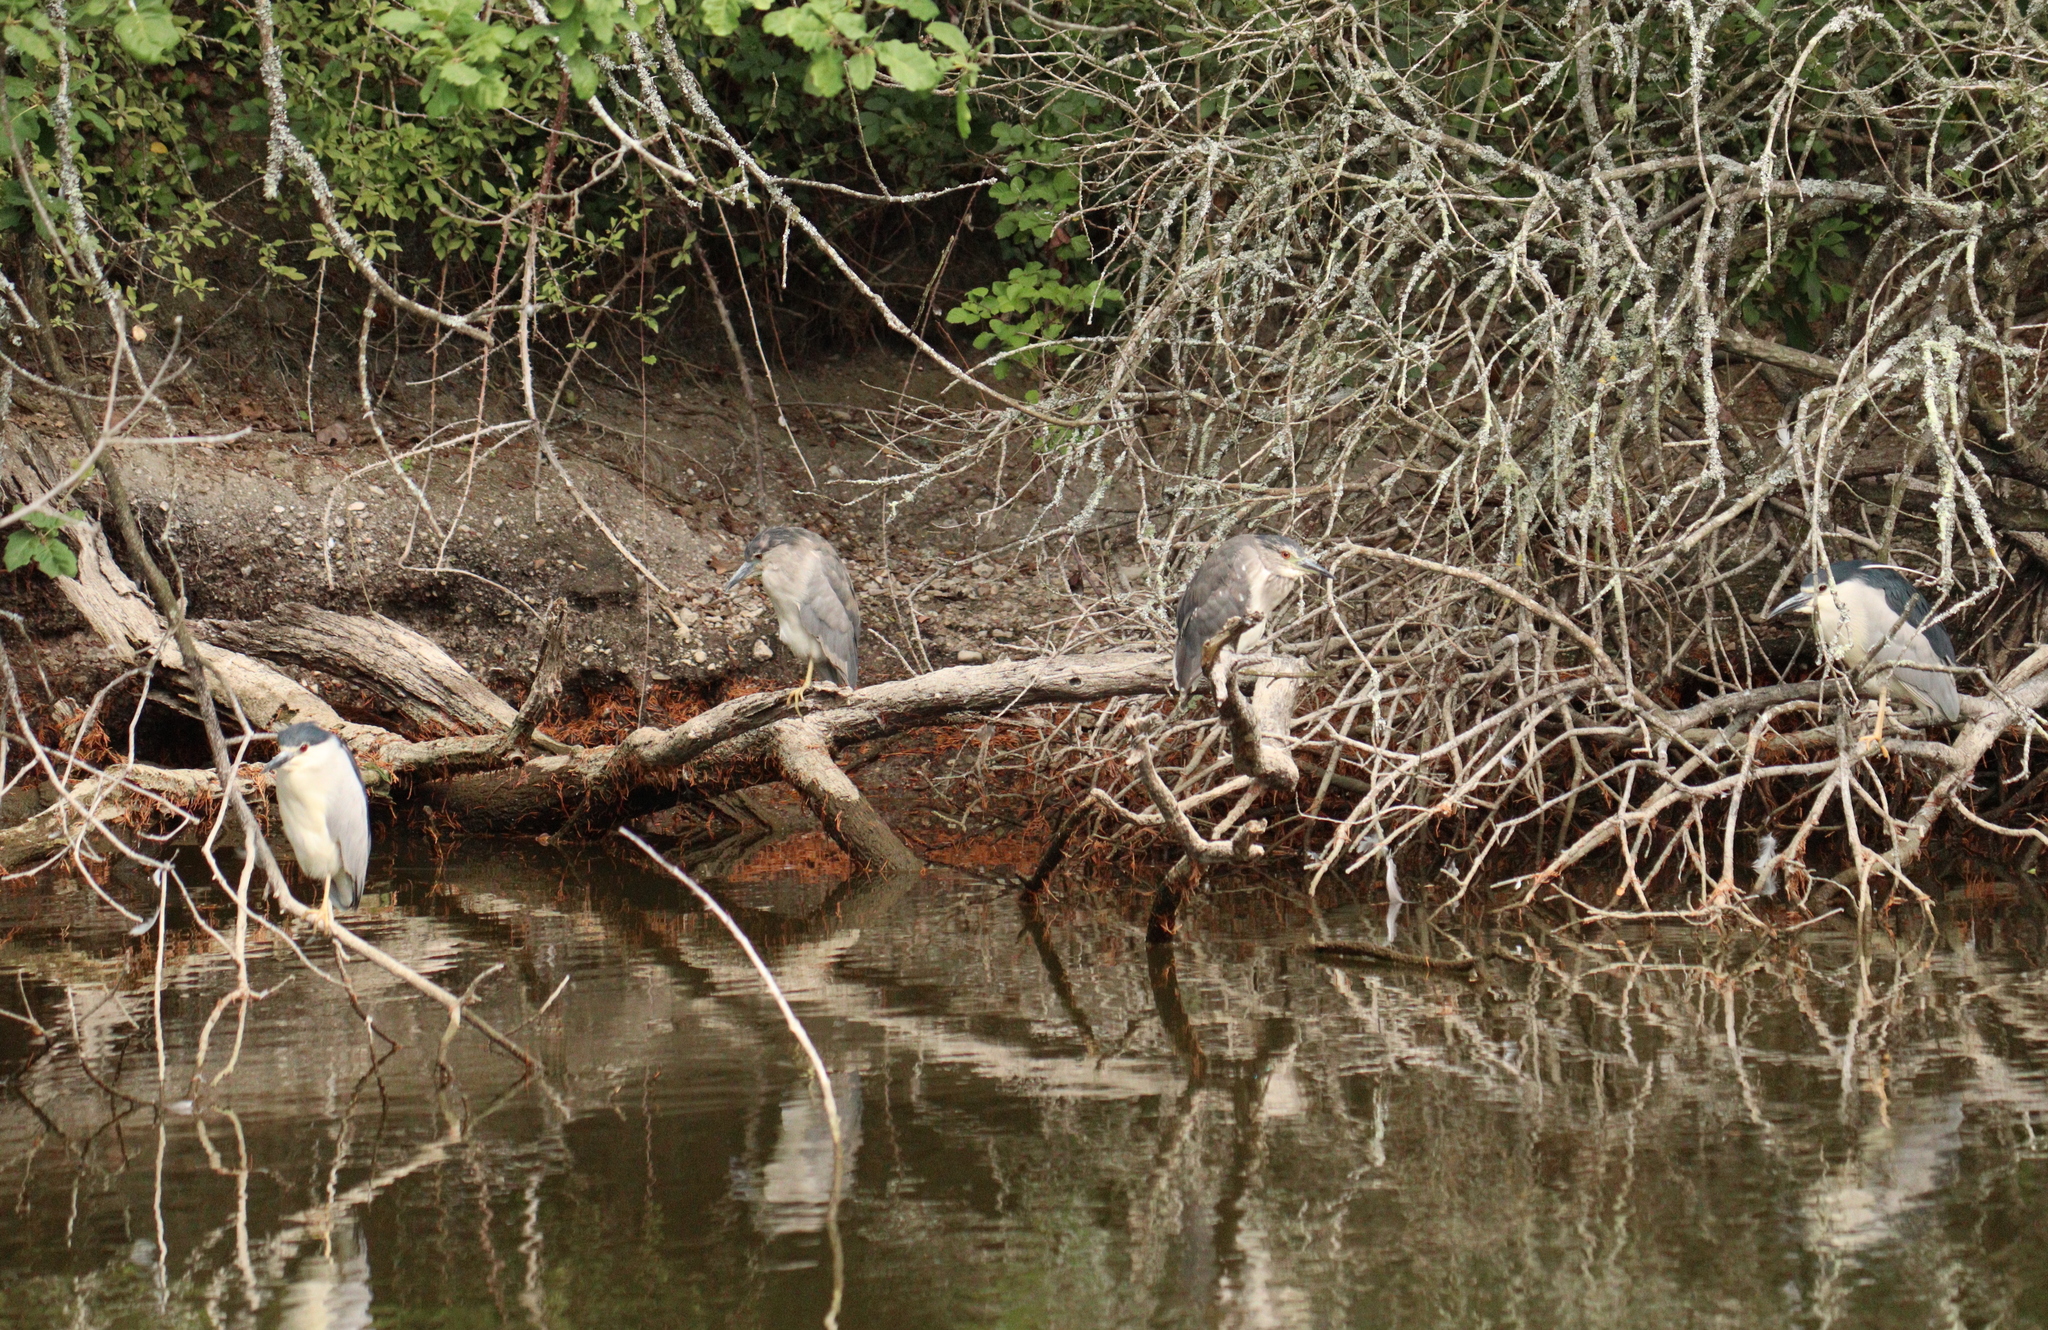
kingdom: Animalia
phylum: Chordata
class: Aves
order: Pelecaniformes
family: Ardeidae
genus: Nycticorax
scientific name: Nycticorax nycticorax
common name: Black-crowned night heron
